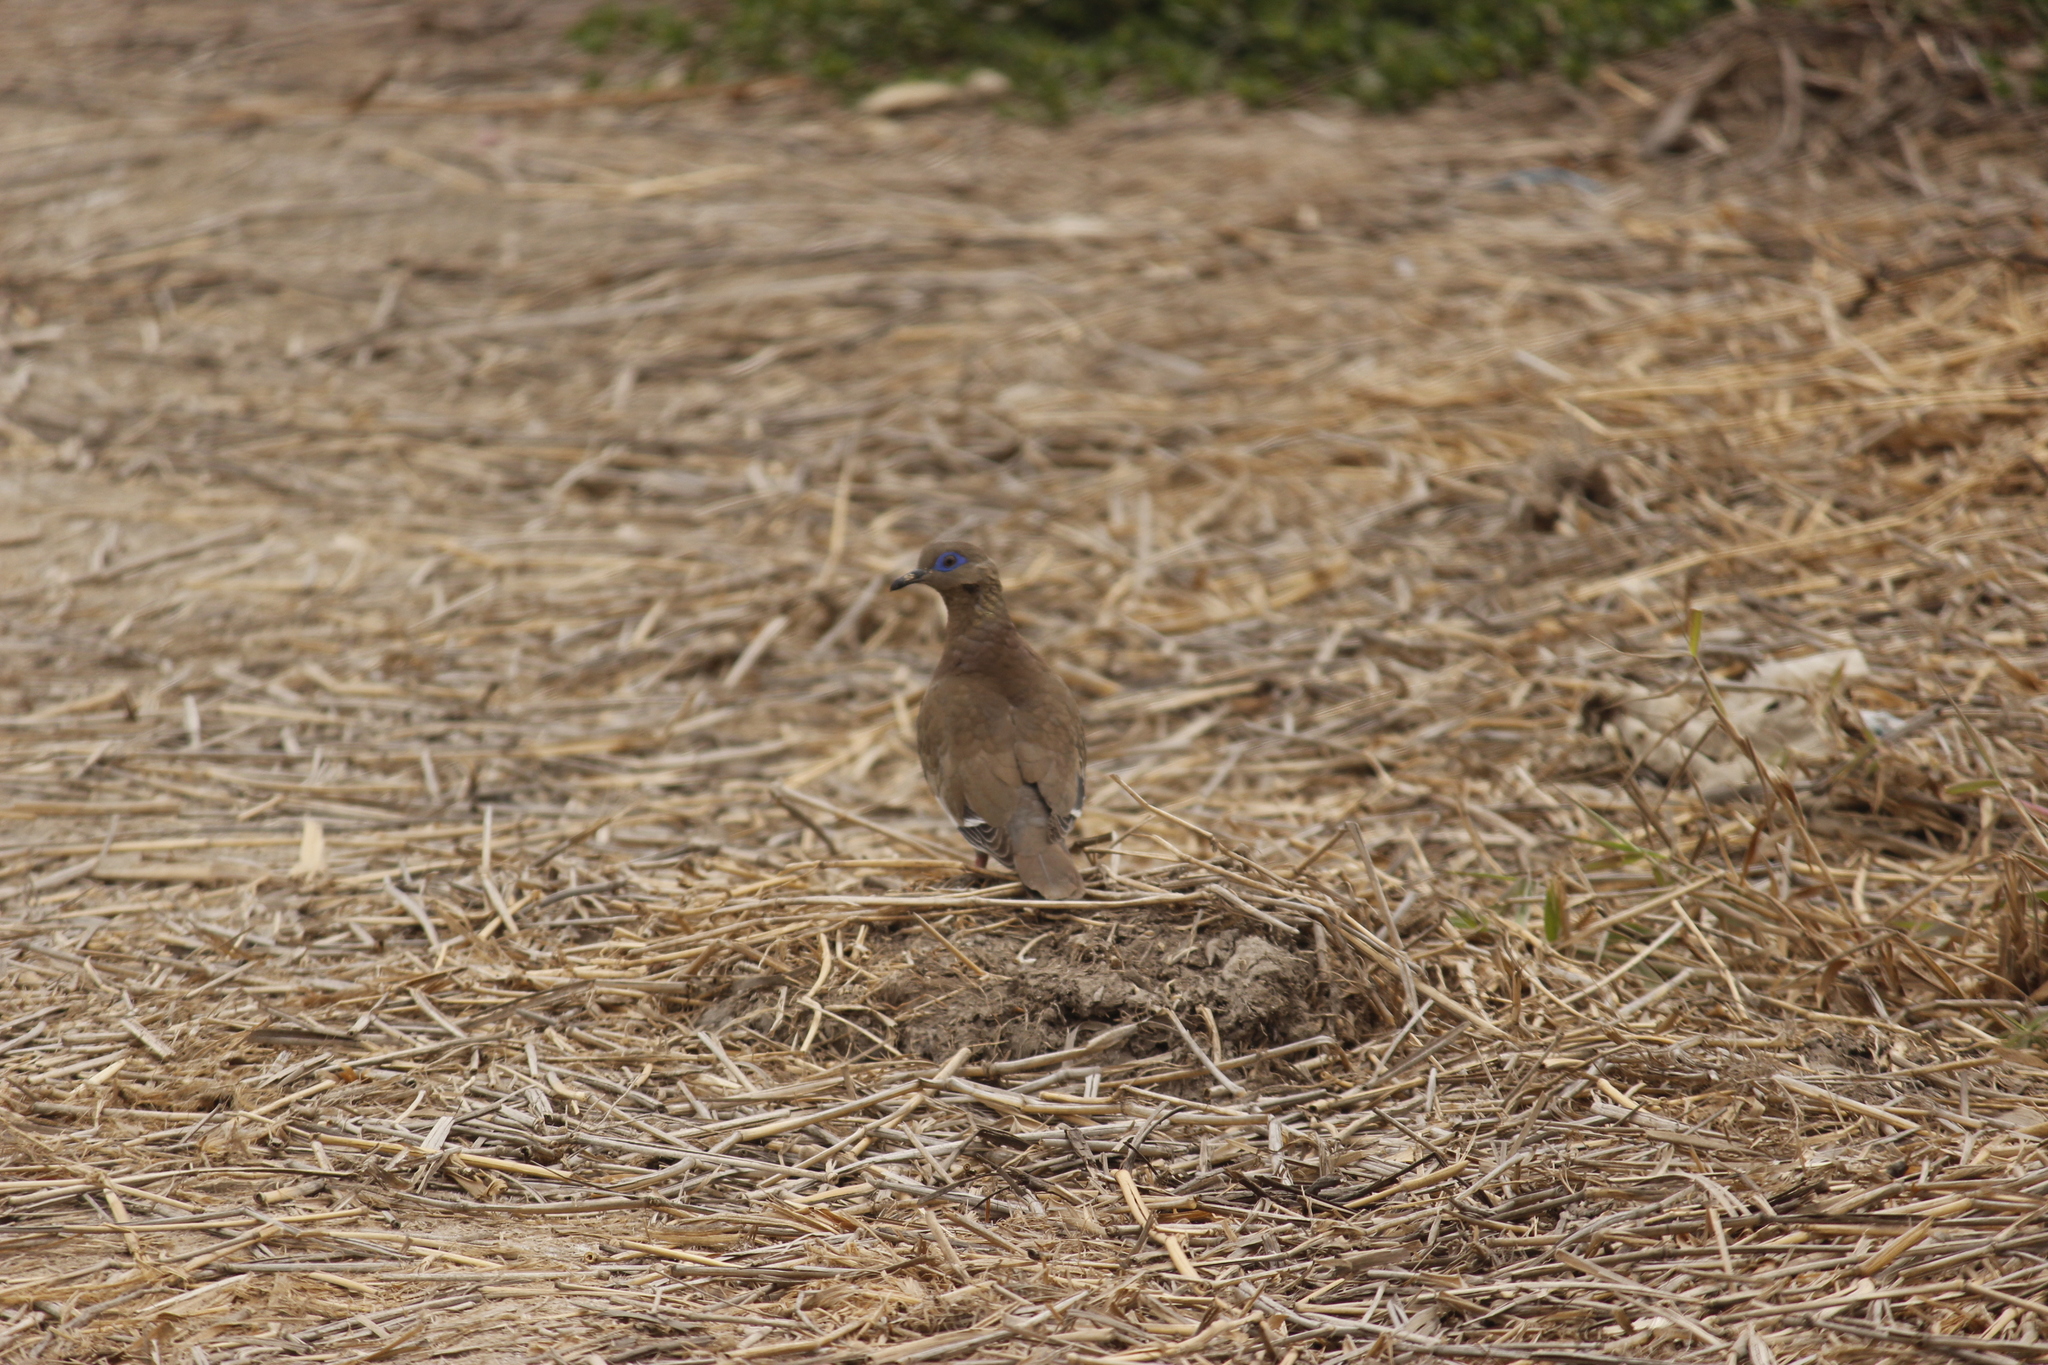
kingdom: Animalia
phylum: Chordata
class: Aves
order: Columbiformes
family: Columbidae
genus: Zenaida
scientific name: Zenaida meloda
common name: West peruvian dove
